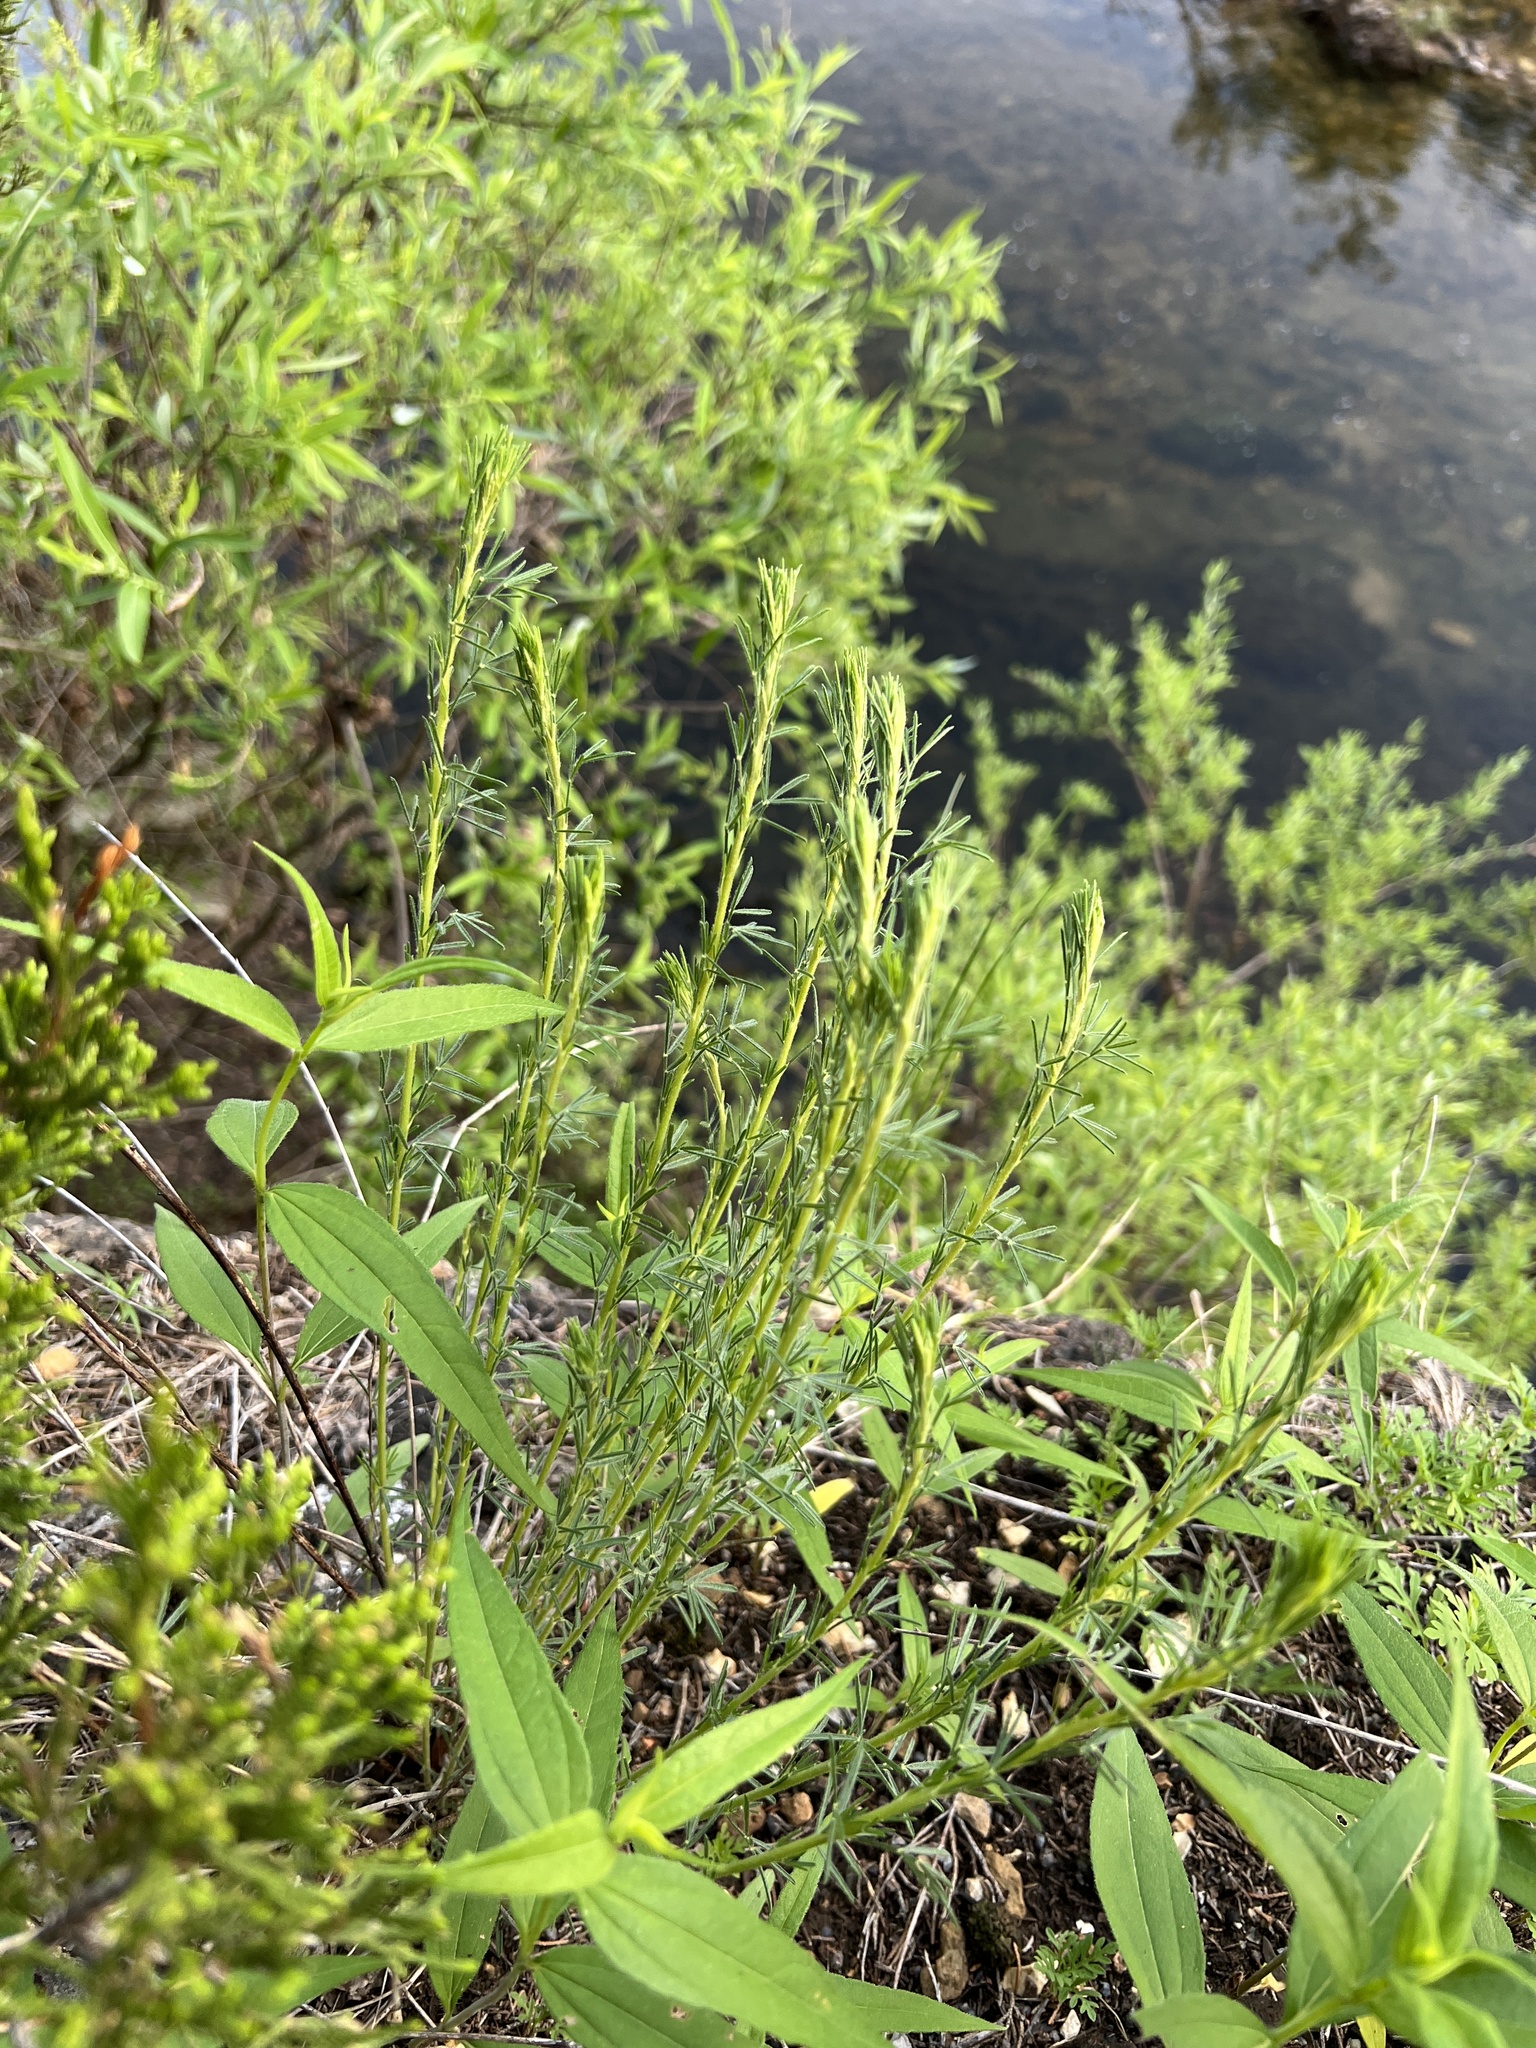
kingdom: Plantae
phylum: Tracheophyta
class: Magnoliopsida
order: Fabales
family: Fabaceae
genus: Dalea
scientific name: Dalea purpurea
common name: Purple prairie-clover
